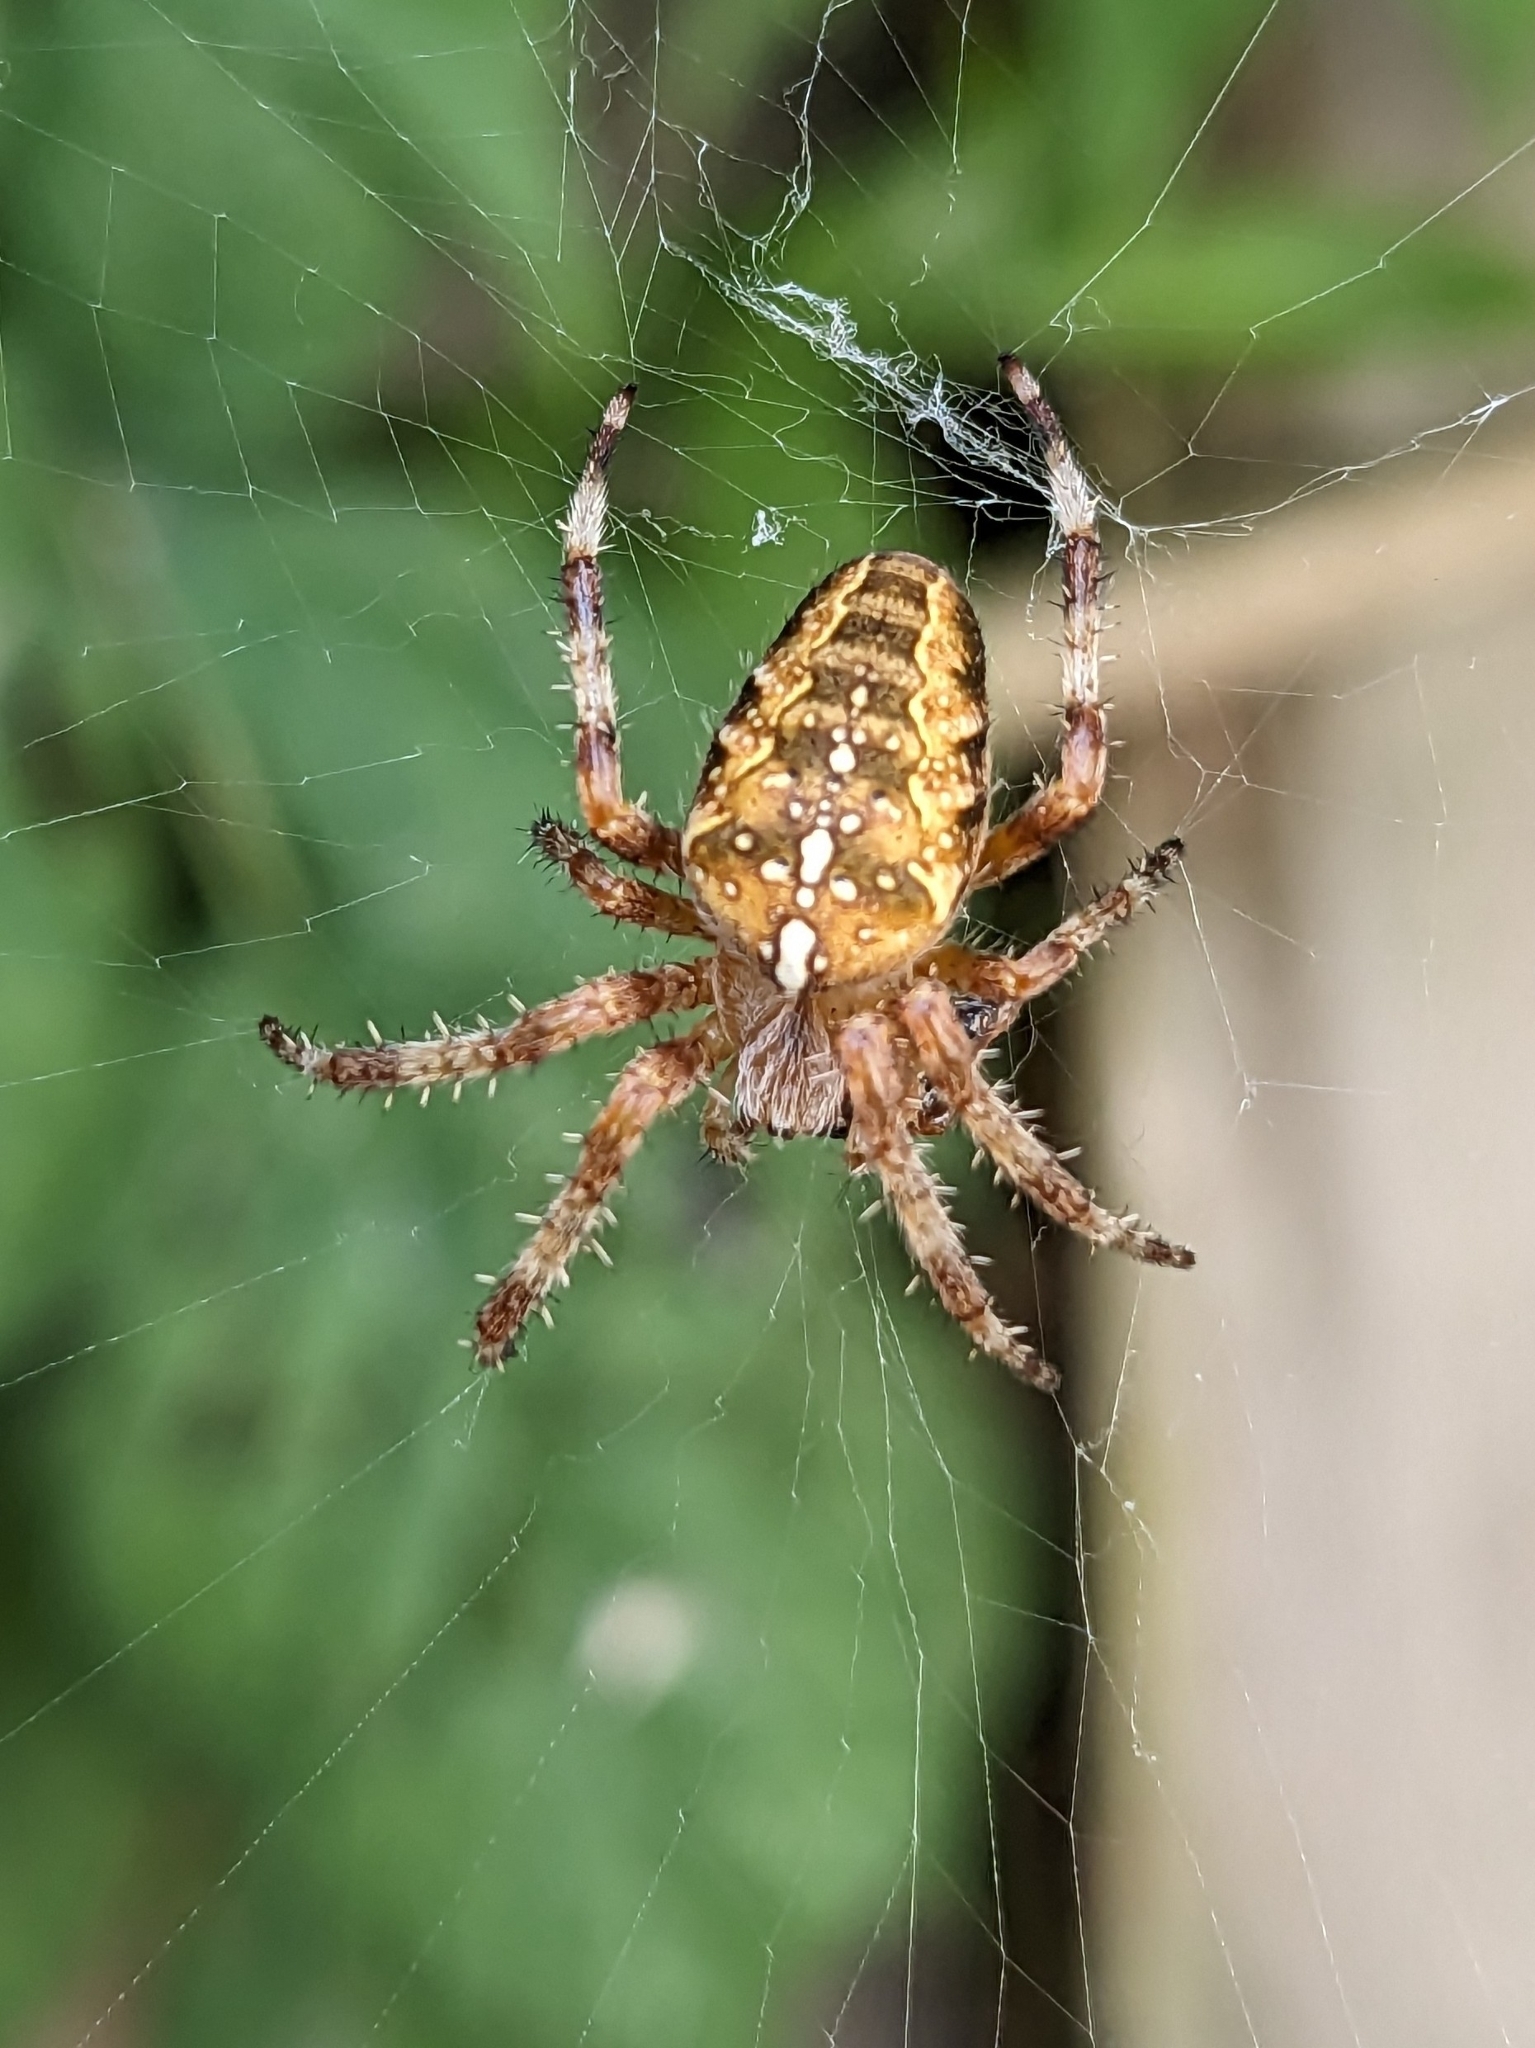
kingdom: Animalia
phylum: Arthropoda
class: Arachnida
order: Araneae
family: Araneidae
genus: Araneus
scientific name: Araneus diadematus
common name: Cross orbweaver
